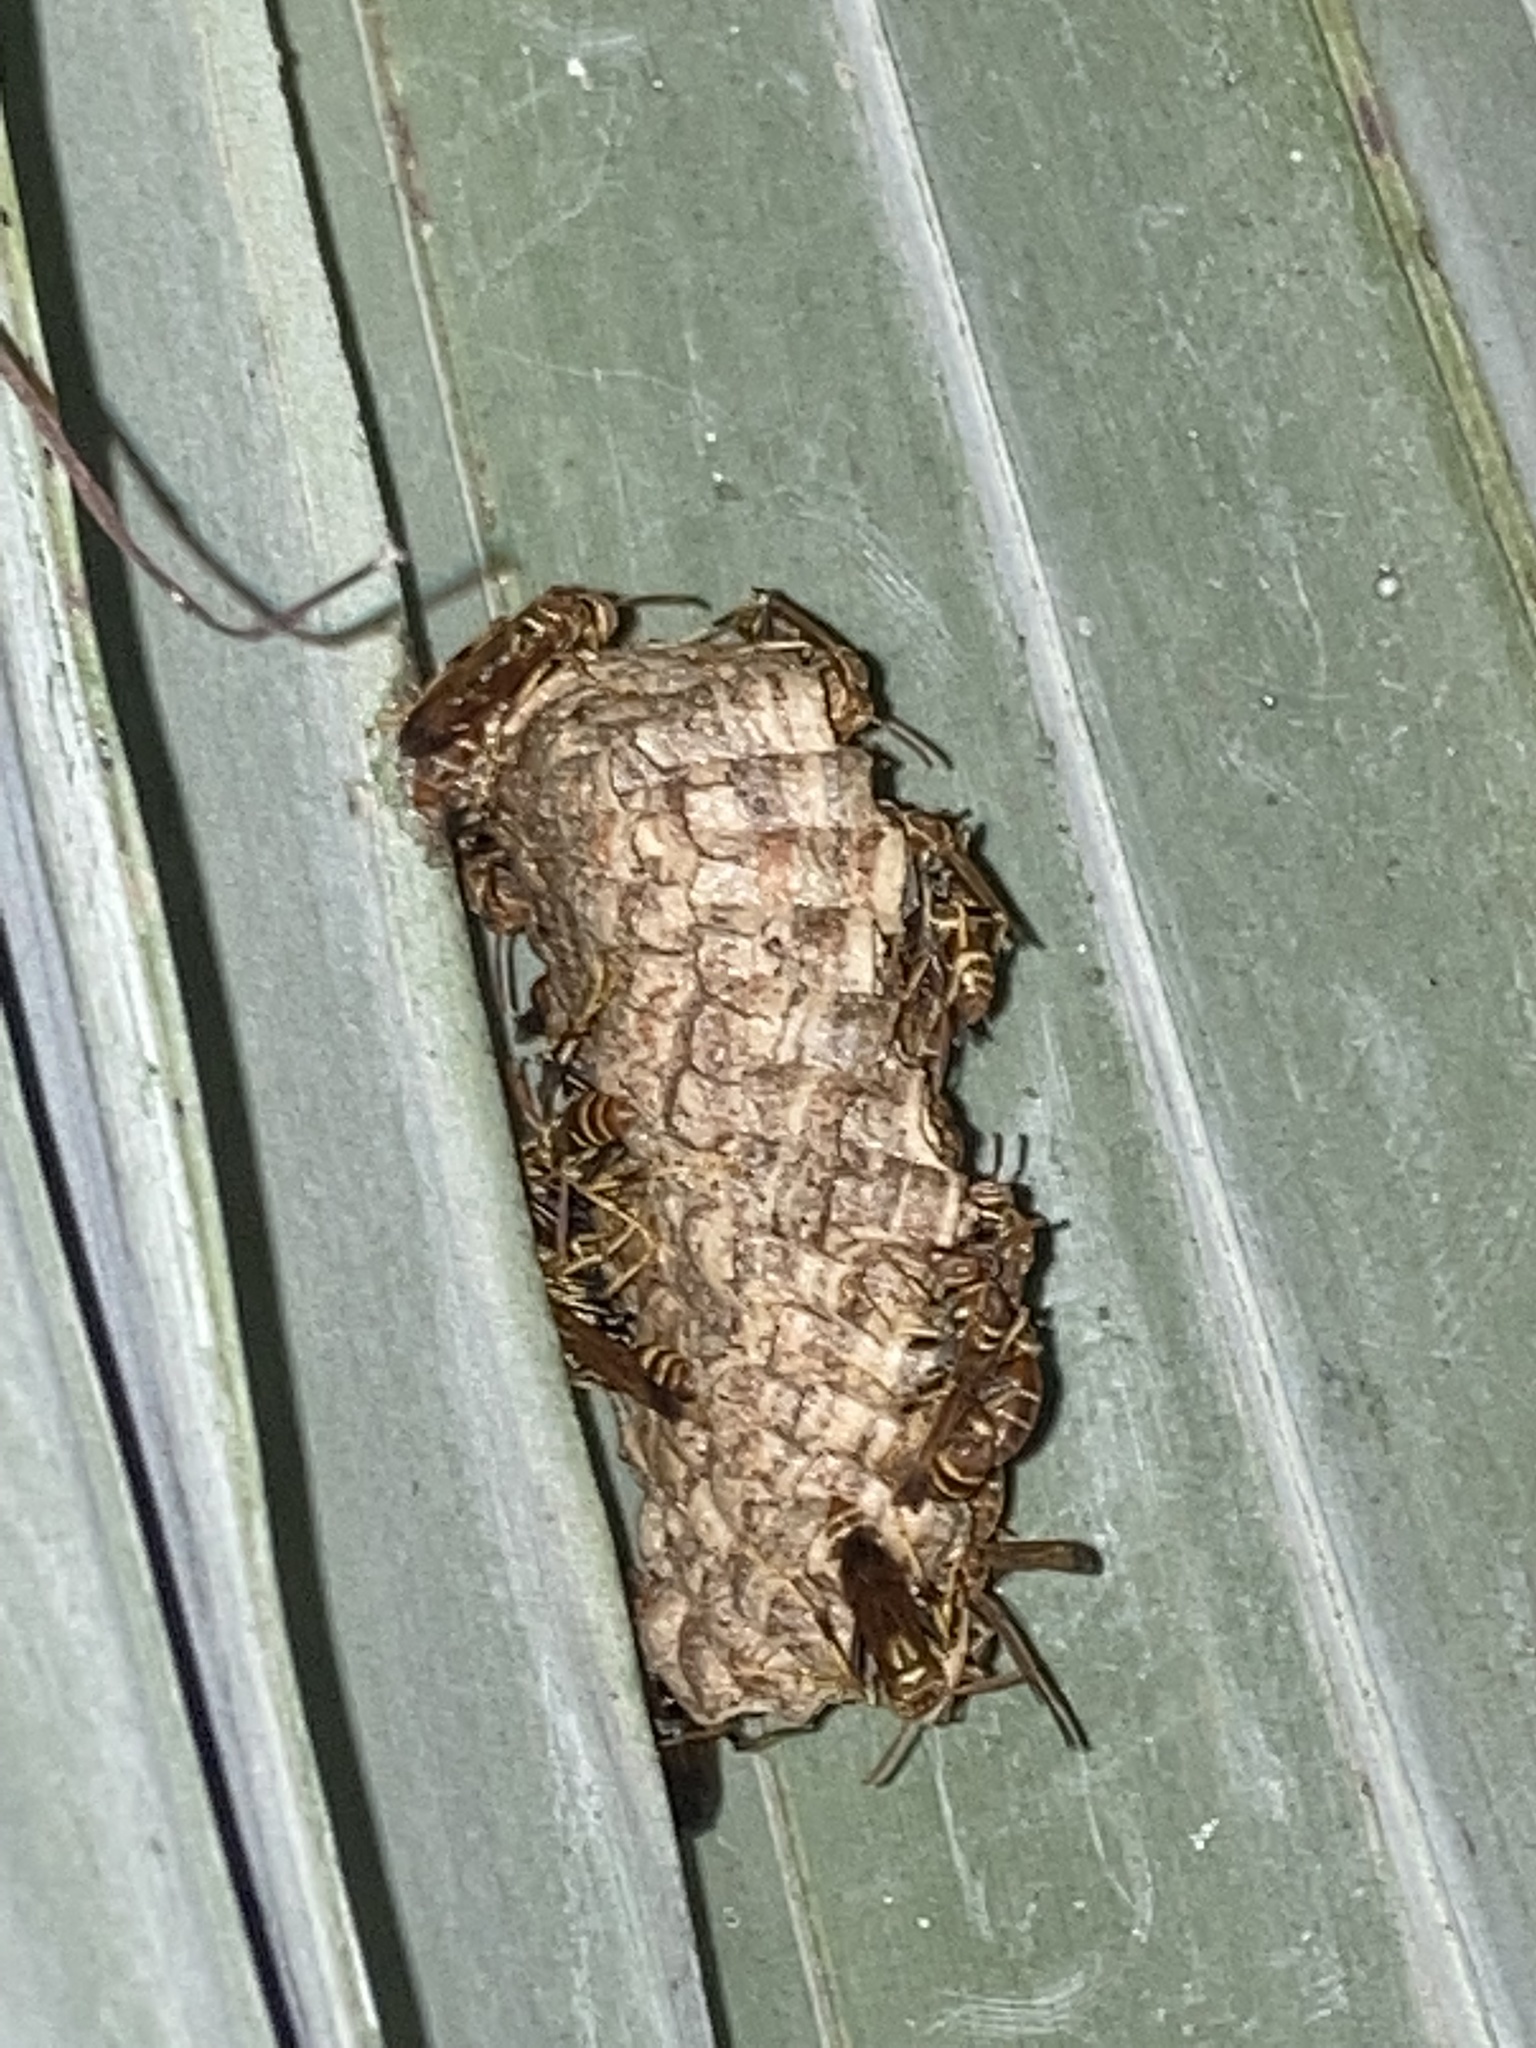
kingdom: Animalia
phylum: Arthropoda
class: Insecta
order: Hymenoptera
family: Vespidae
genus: Mischocyttarus
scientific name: Mischocyttarus mexicanus
